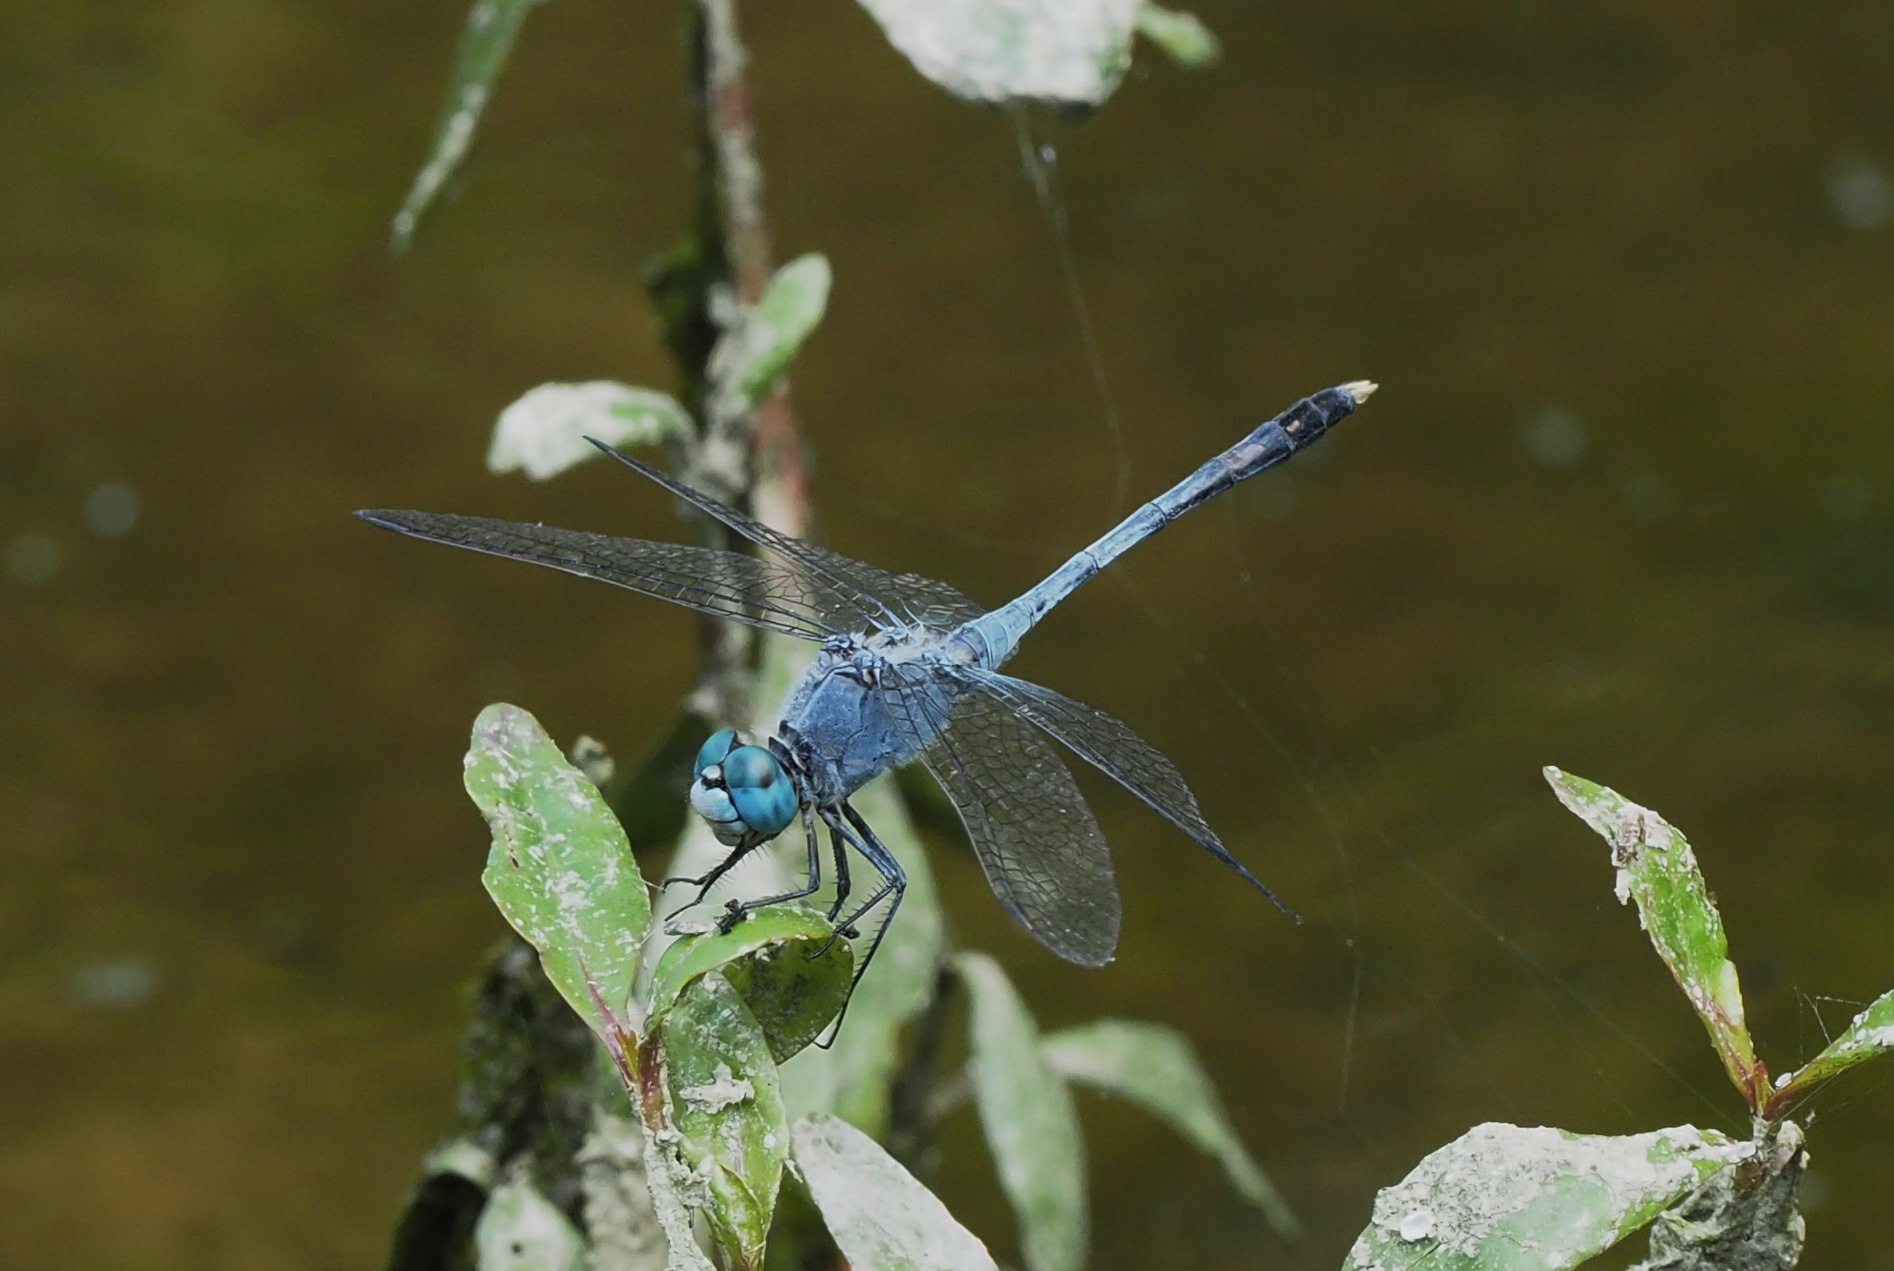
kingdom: Animalia
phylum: Arthropoda
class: Insecta
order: Odonata
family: Libellulidae
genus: Diplacodes
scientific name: Diplacodes trivialis
